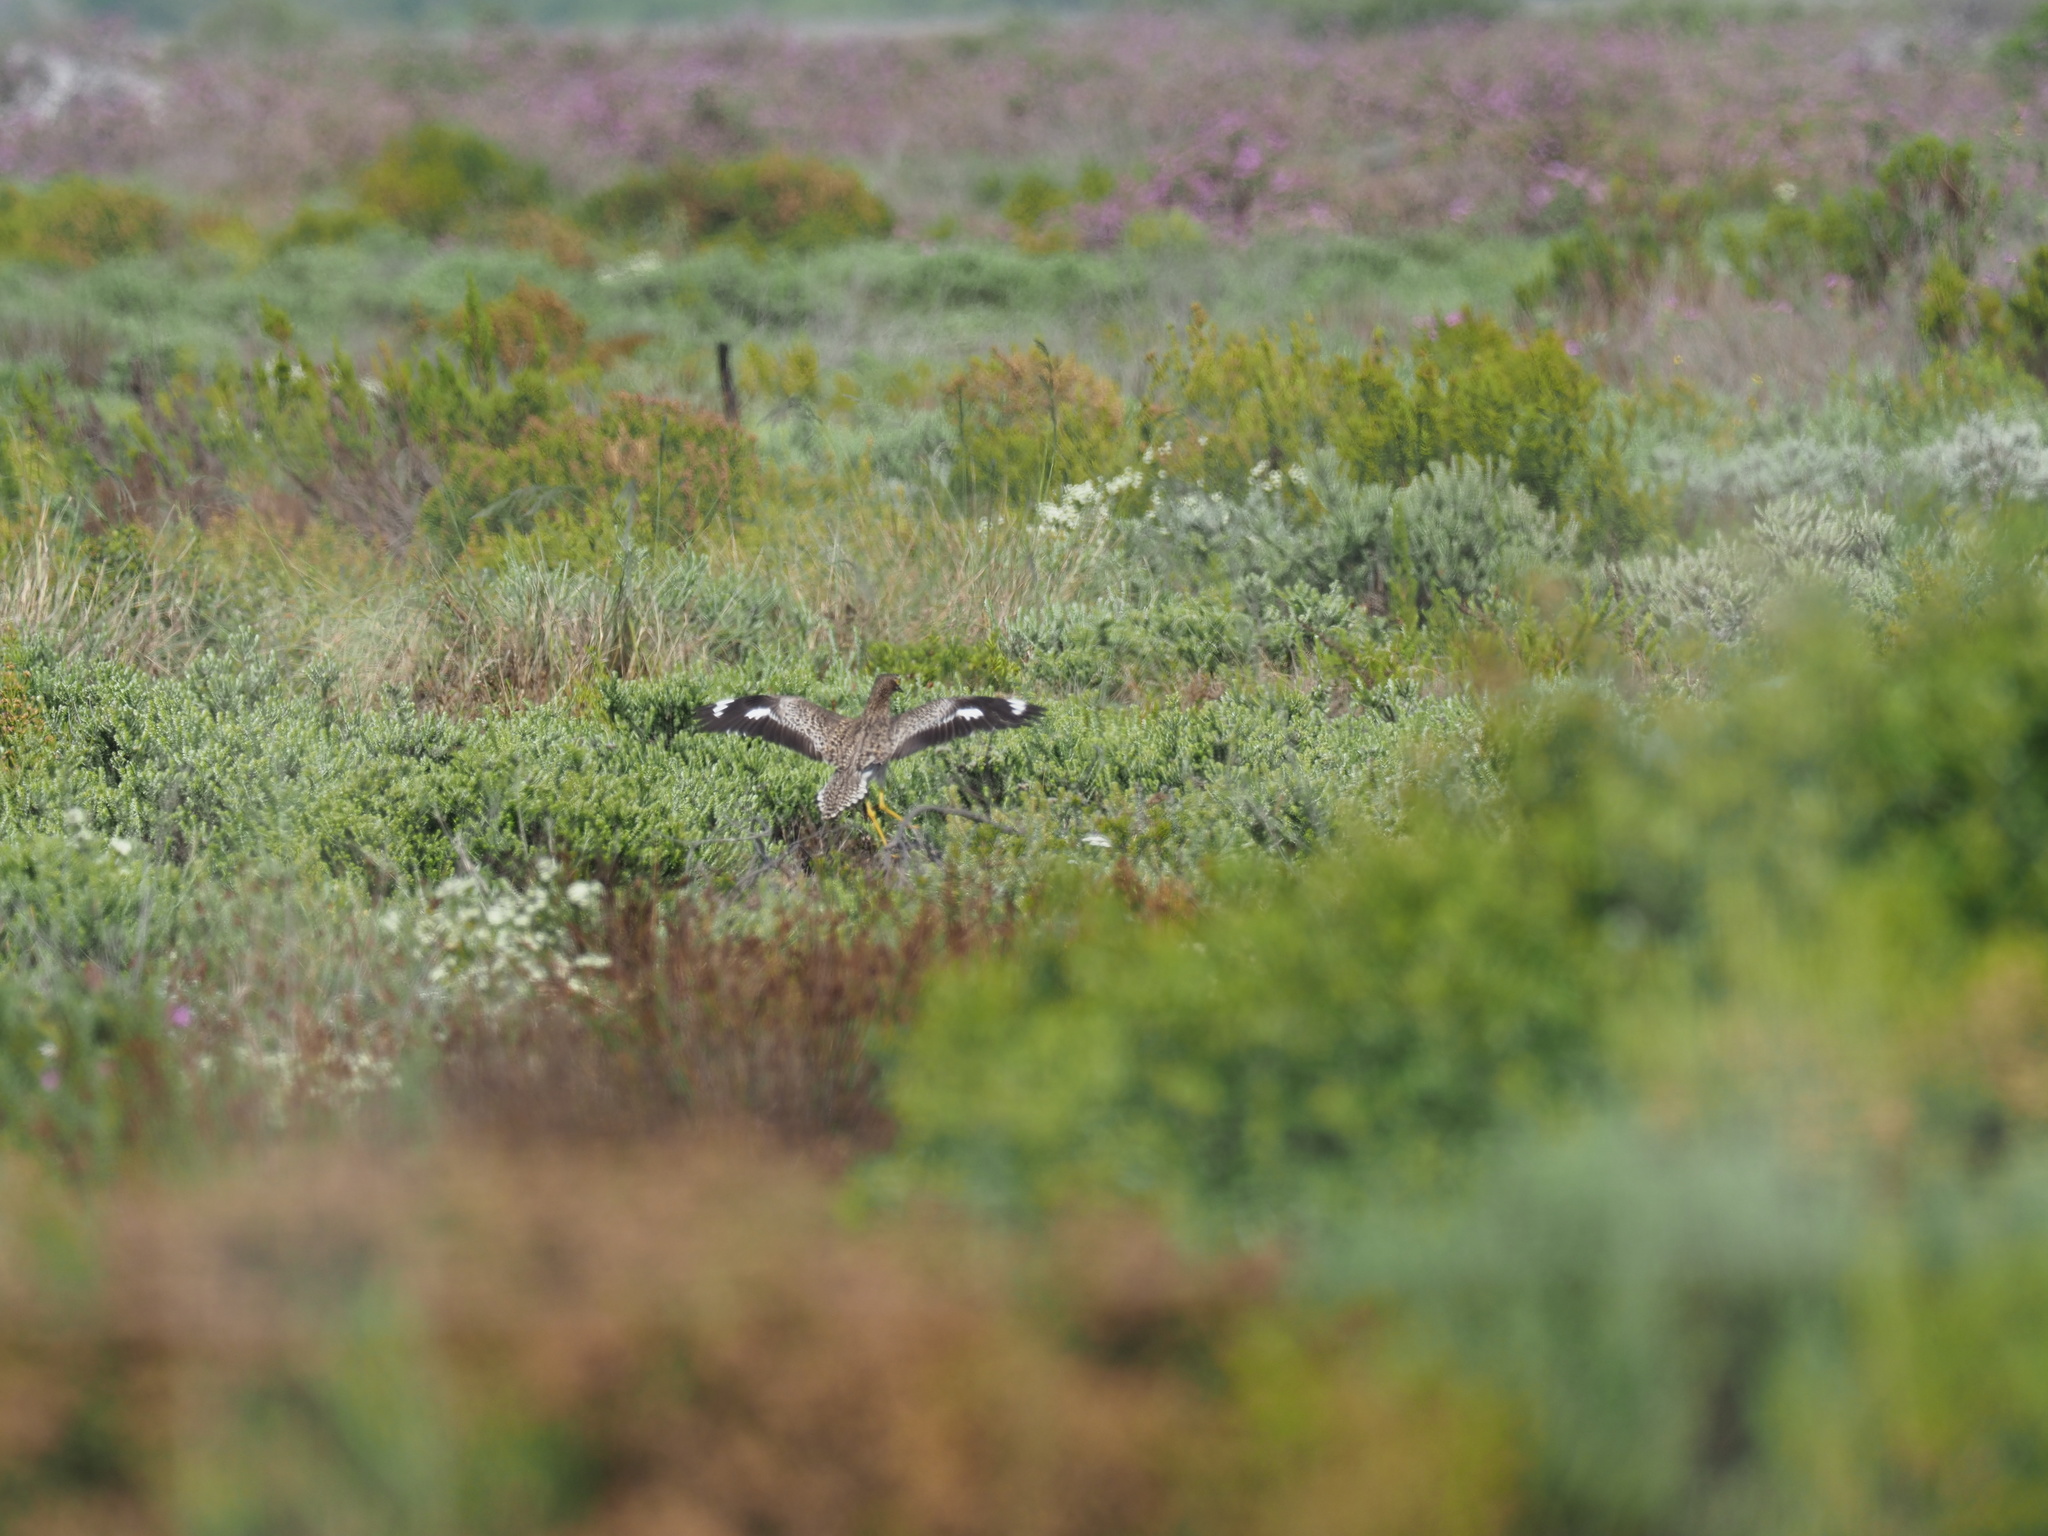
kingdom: Animalia
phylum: Chordata
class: Aves
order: Charadriiformes
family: Burhinidae
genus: Burhinus
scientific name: Burhinus capensis
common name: Spotted thick-knee
